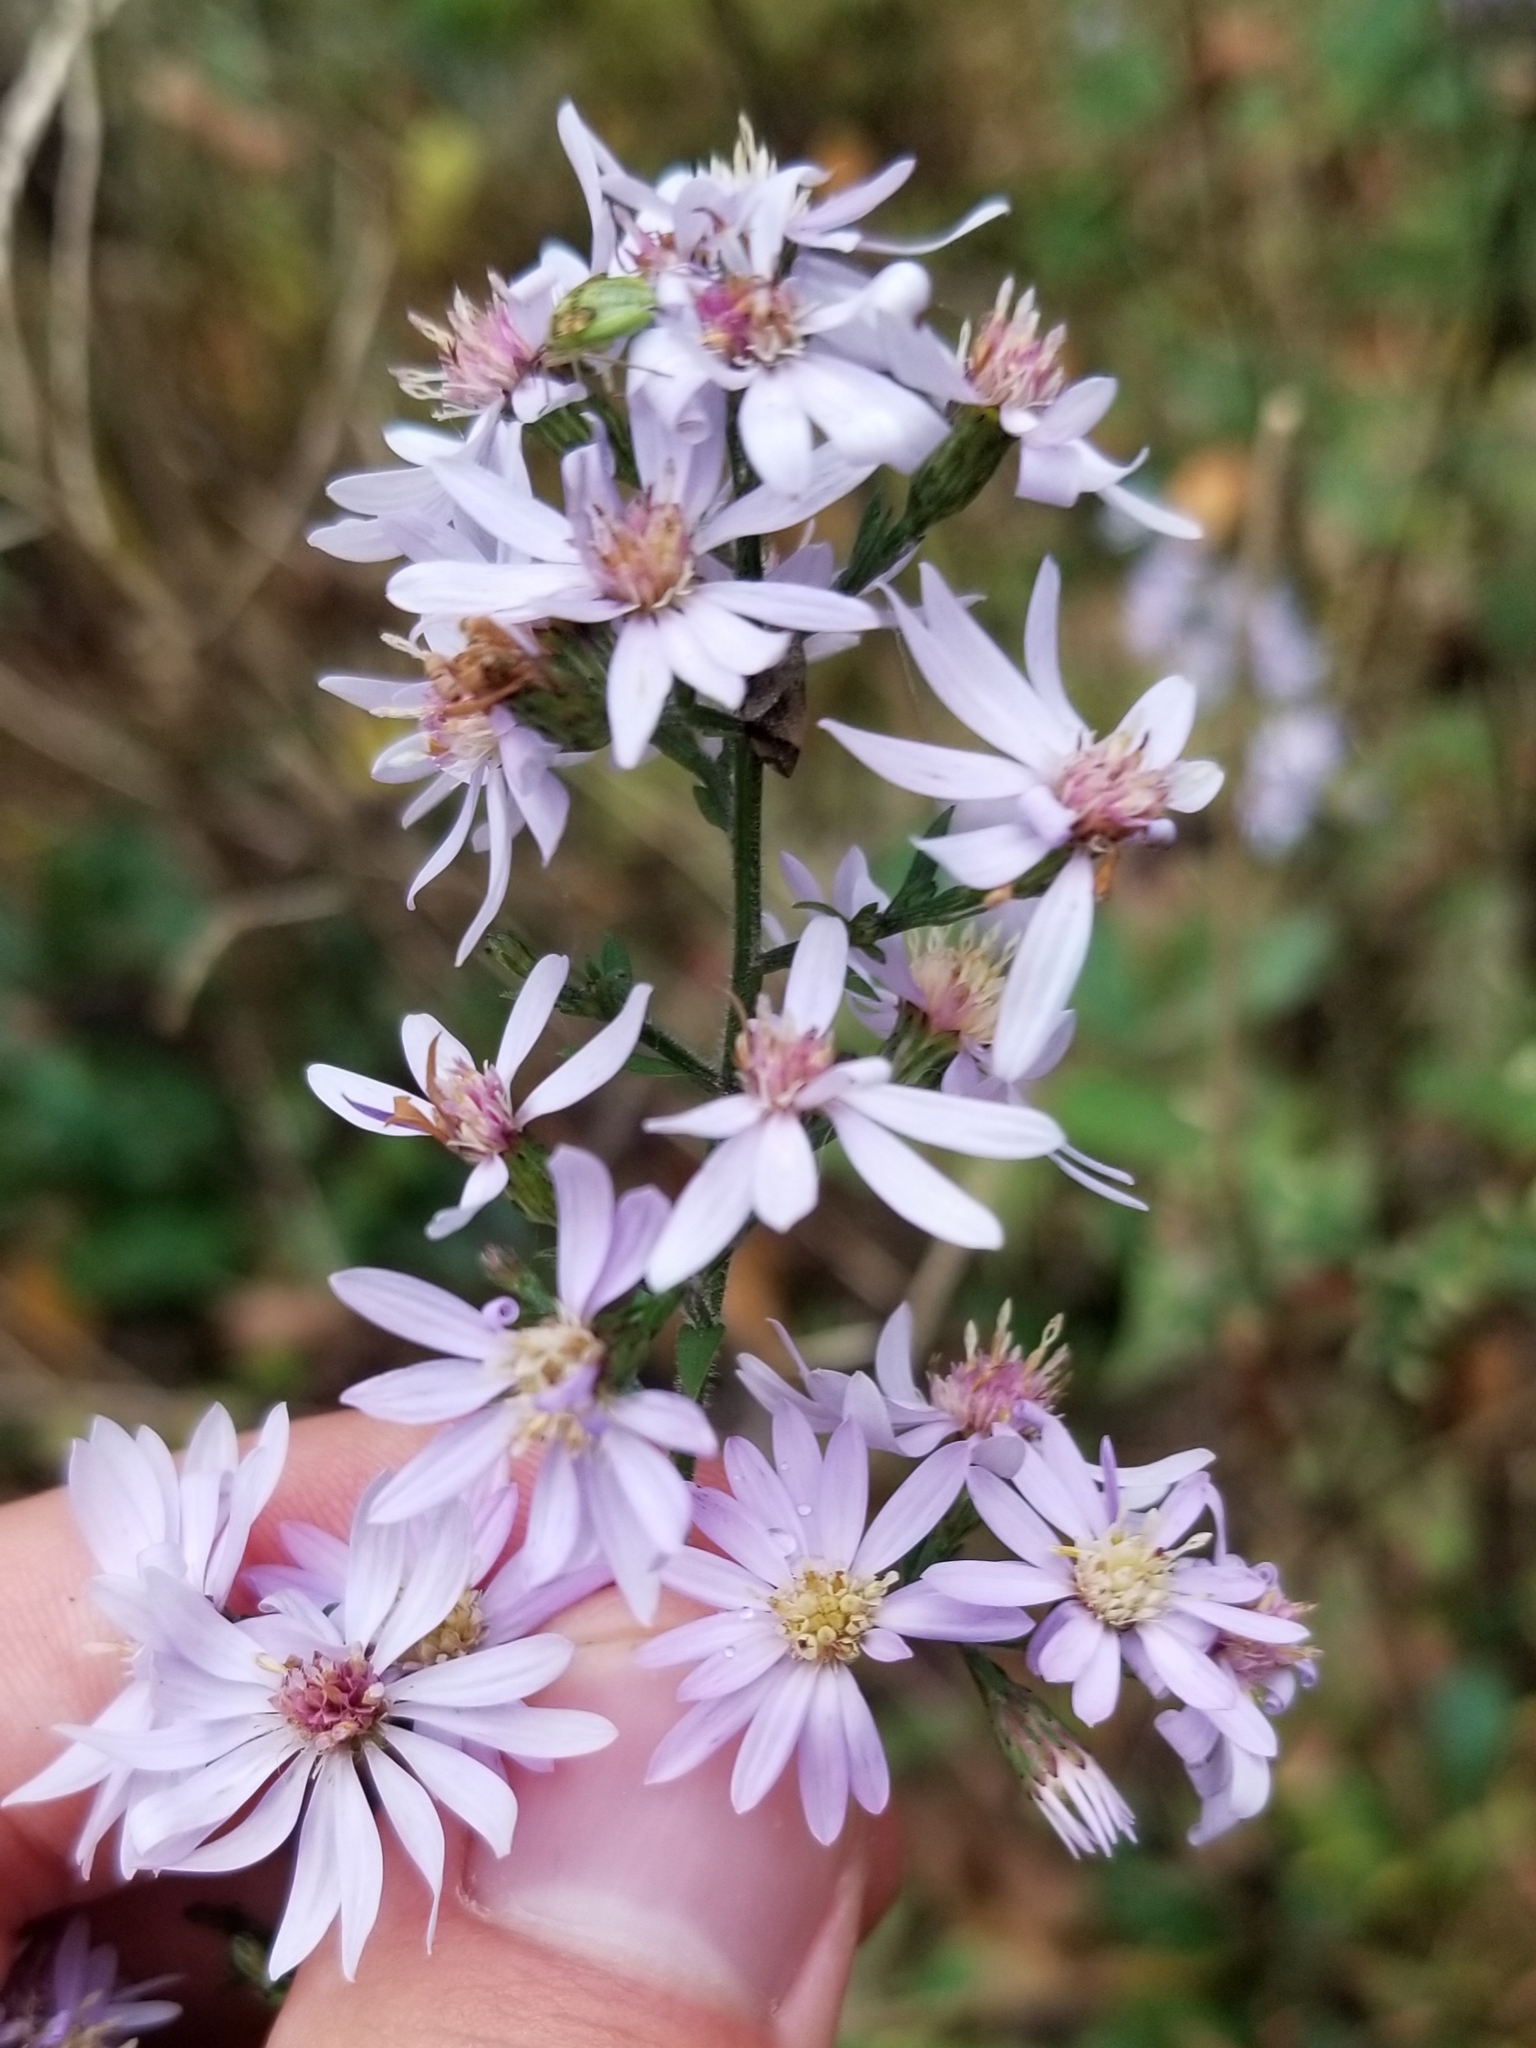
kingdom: Plantae
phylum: Tracheophyta
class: Magnoliopsida
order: Asterales
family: Asteraceae
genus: Symphyotrichum
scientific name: Symphyotrichum cordifolium
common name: Beeweed
